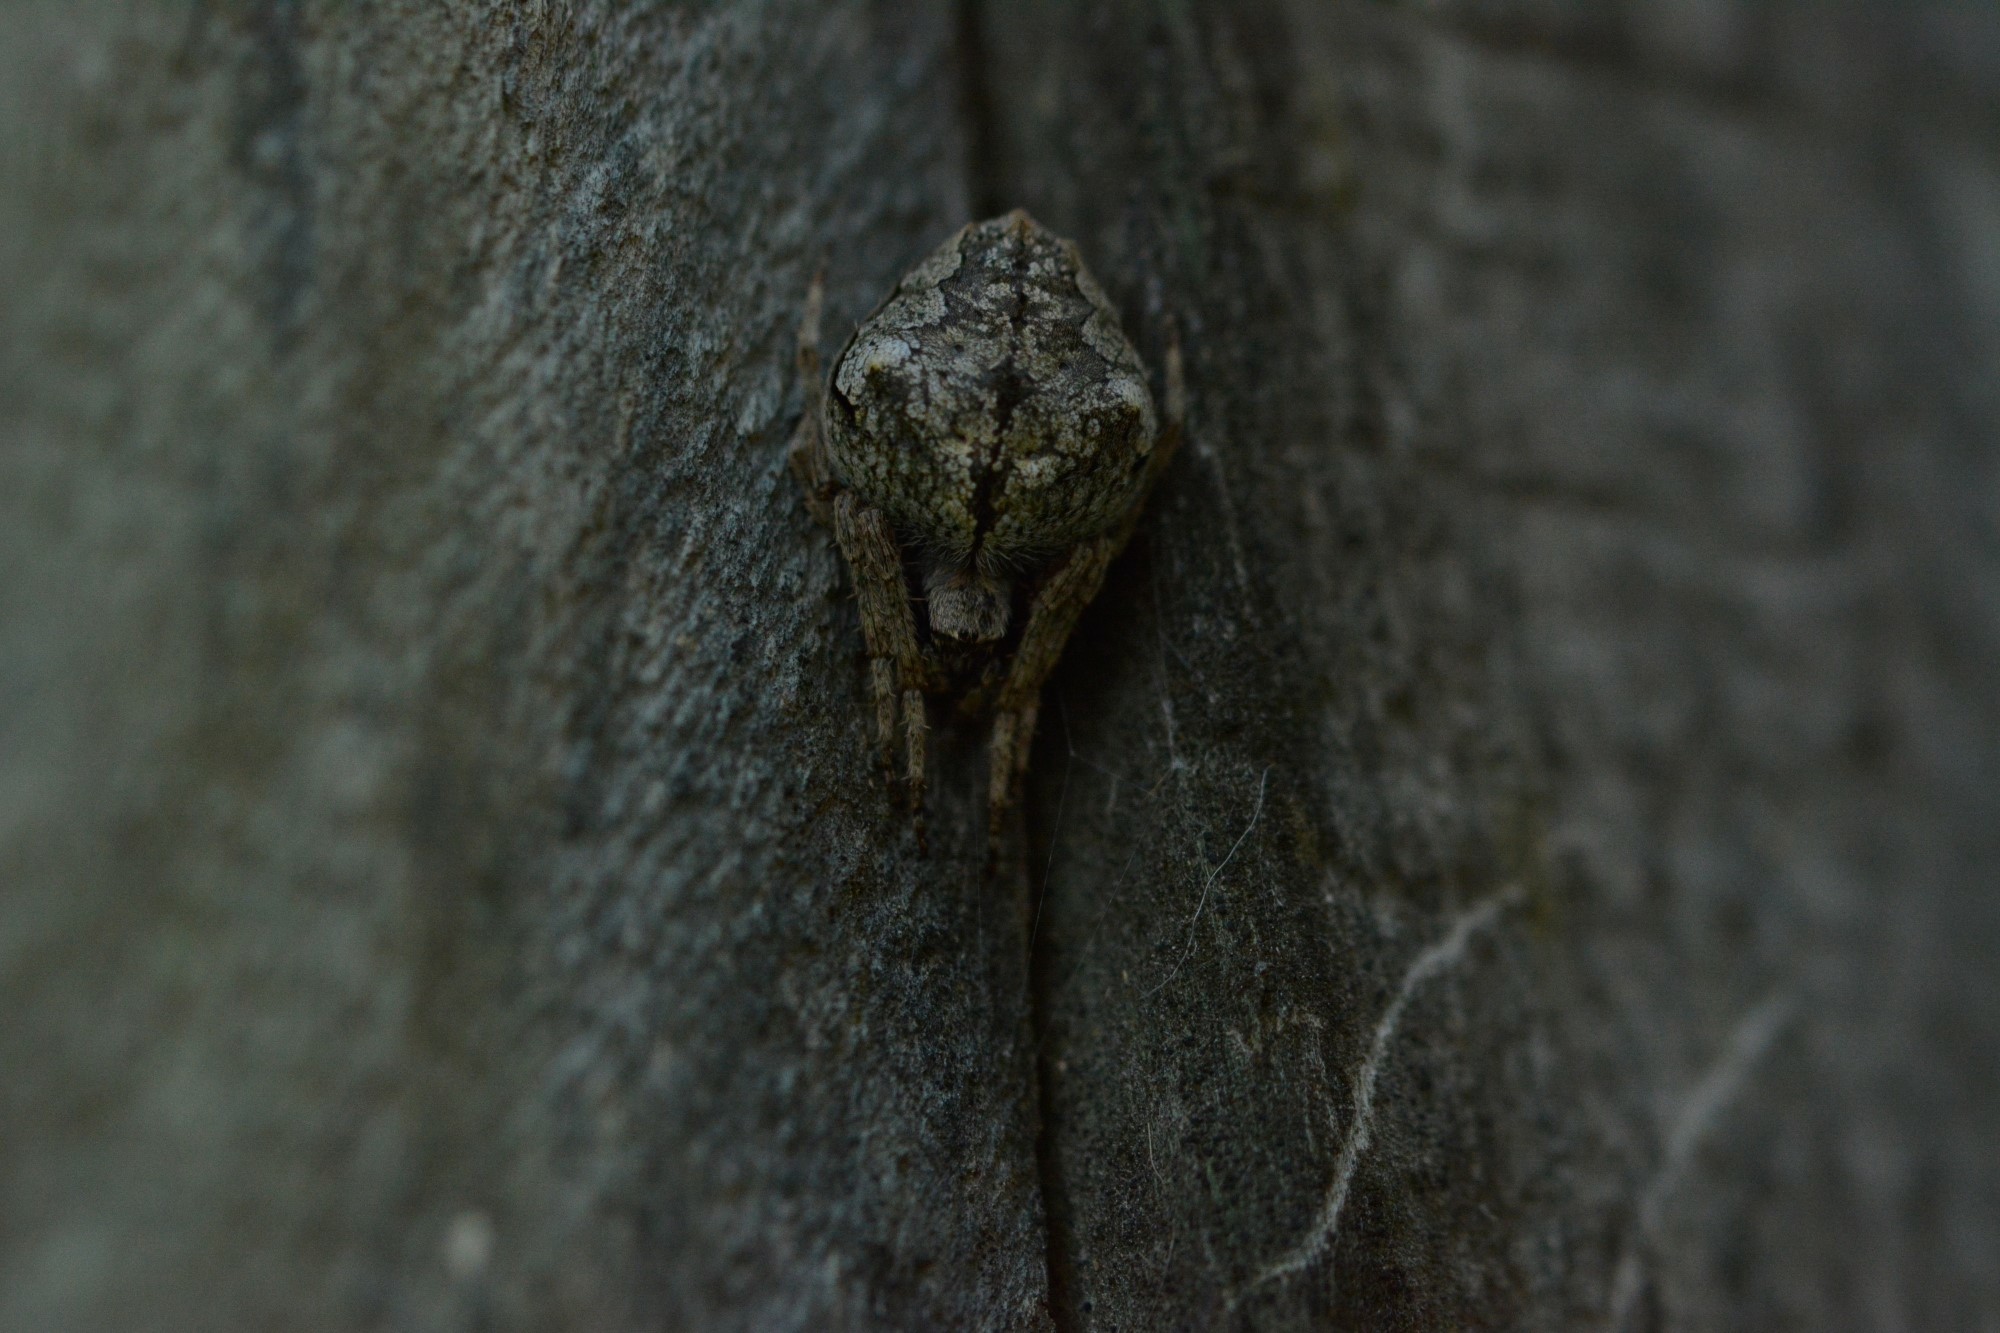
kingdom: Animalia
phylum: Arthropoda
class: Arachnida
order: Araneae
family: Araneidae
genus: Eriophora
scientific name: Eriophora pustulosa
